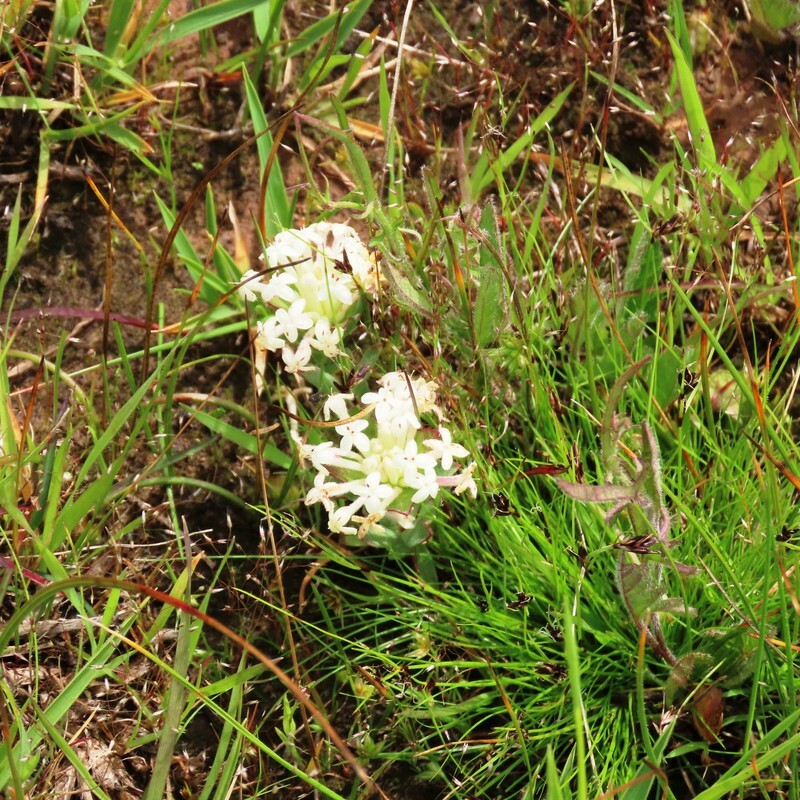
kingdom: Plantae
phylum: Tracheophyta
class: Magnoliopsida
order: Malvales
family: Thymelaeaceae
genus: Pimelea
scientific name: Pimelea humilis
